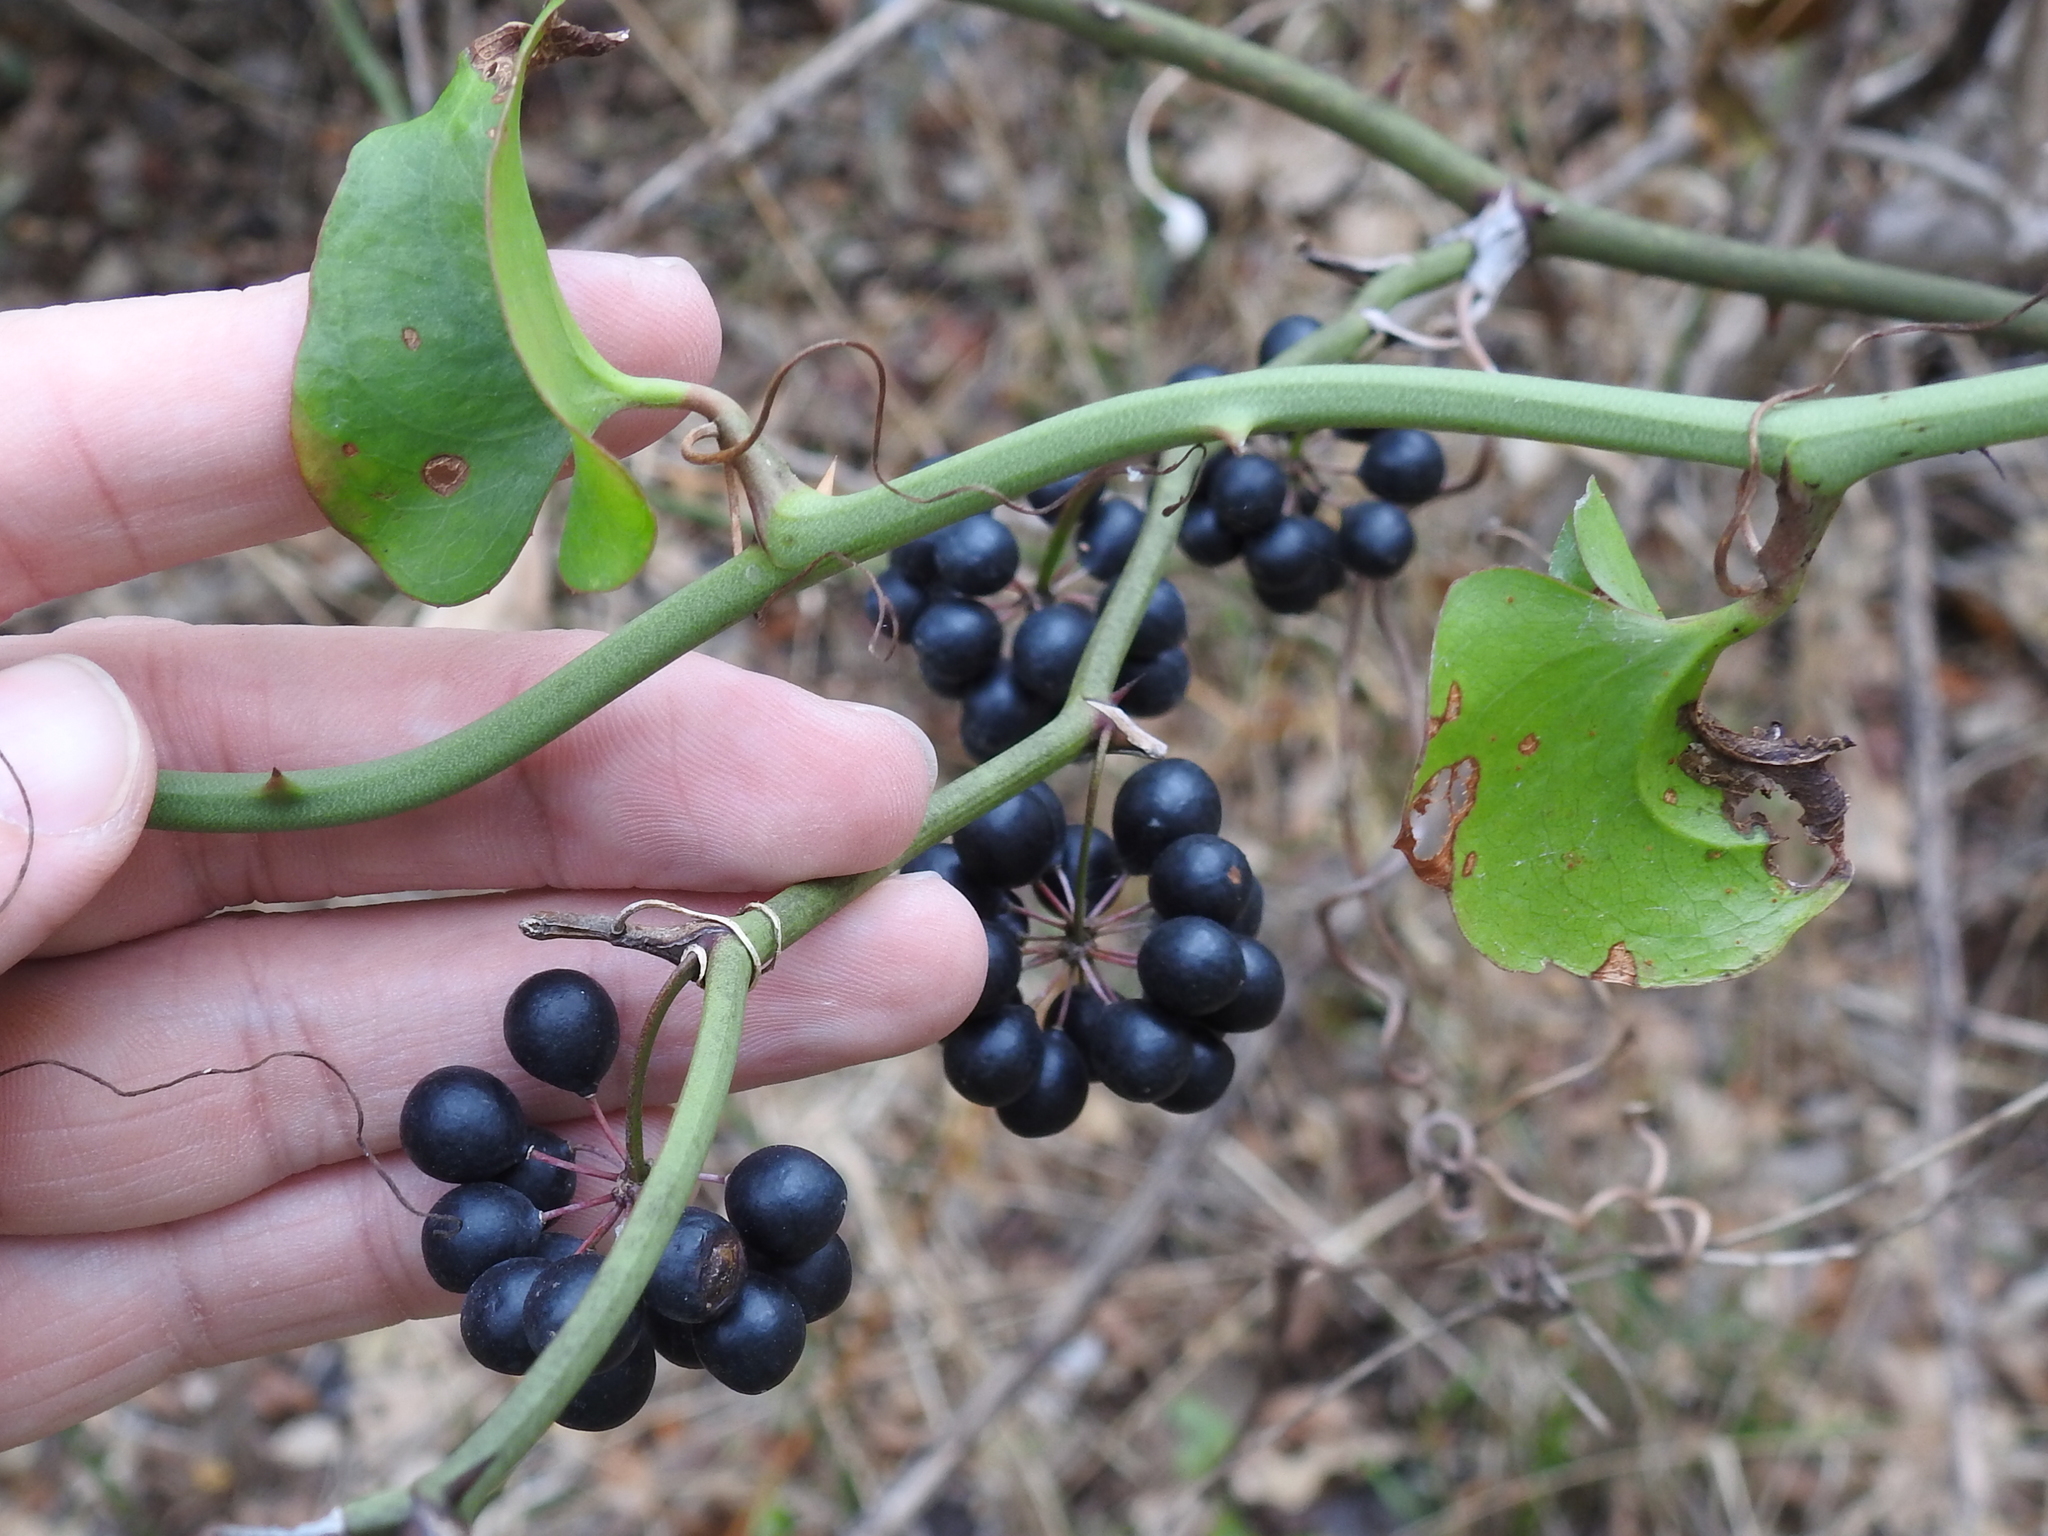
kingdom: Plantae
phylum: Tracheophyta
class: Liliopsida
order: Liliales
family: Smilacaceae
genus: Smilax
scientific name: Smilax bona-nox
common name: Catbrier
